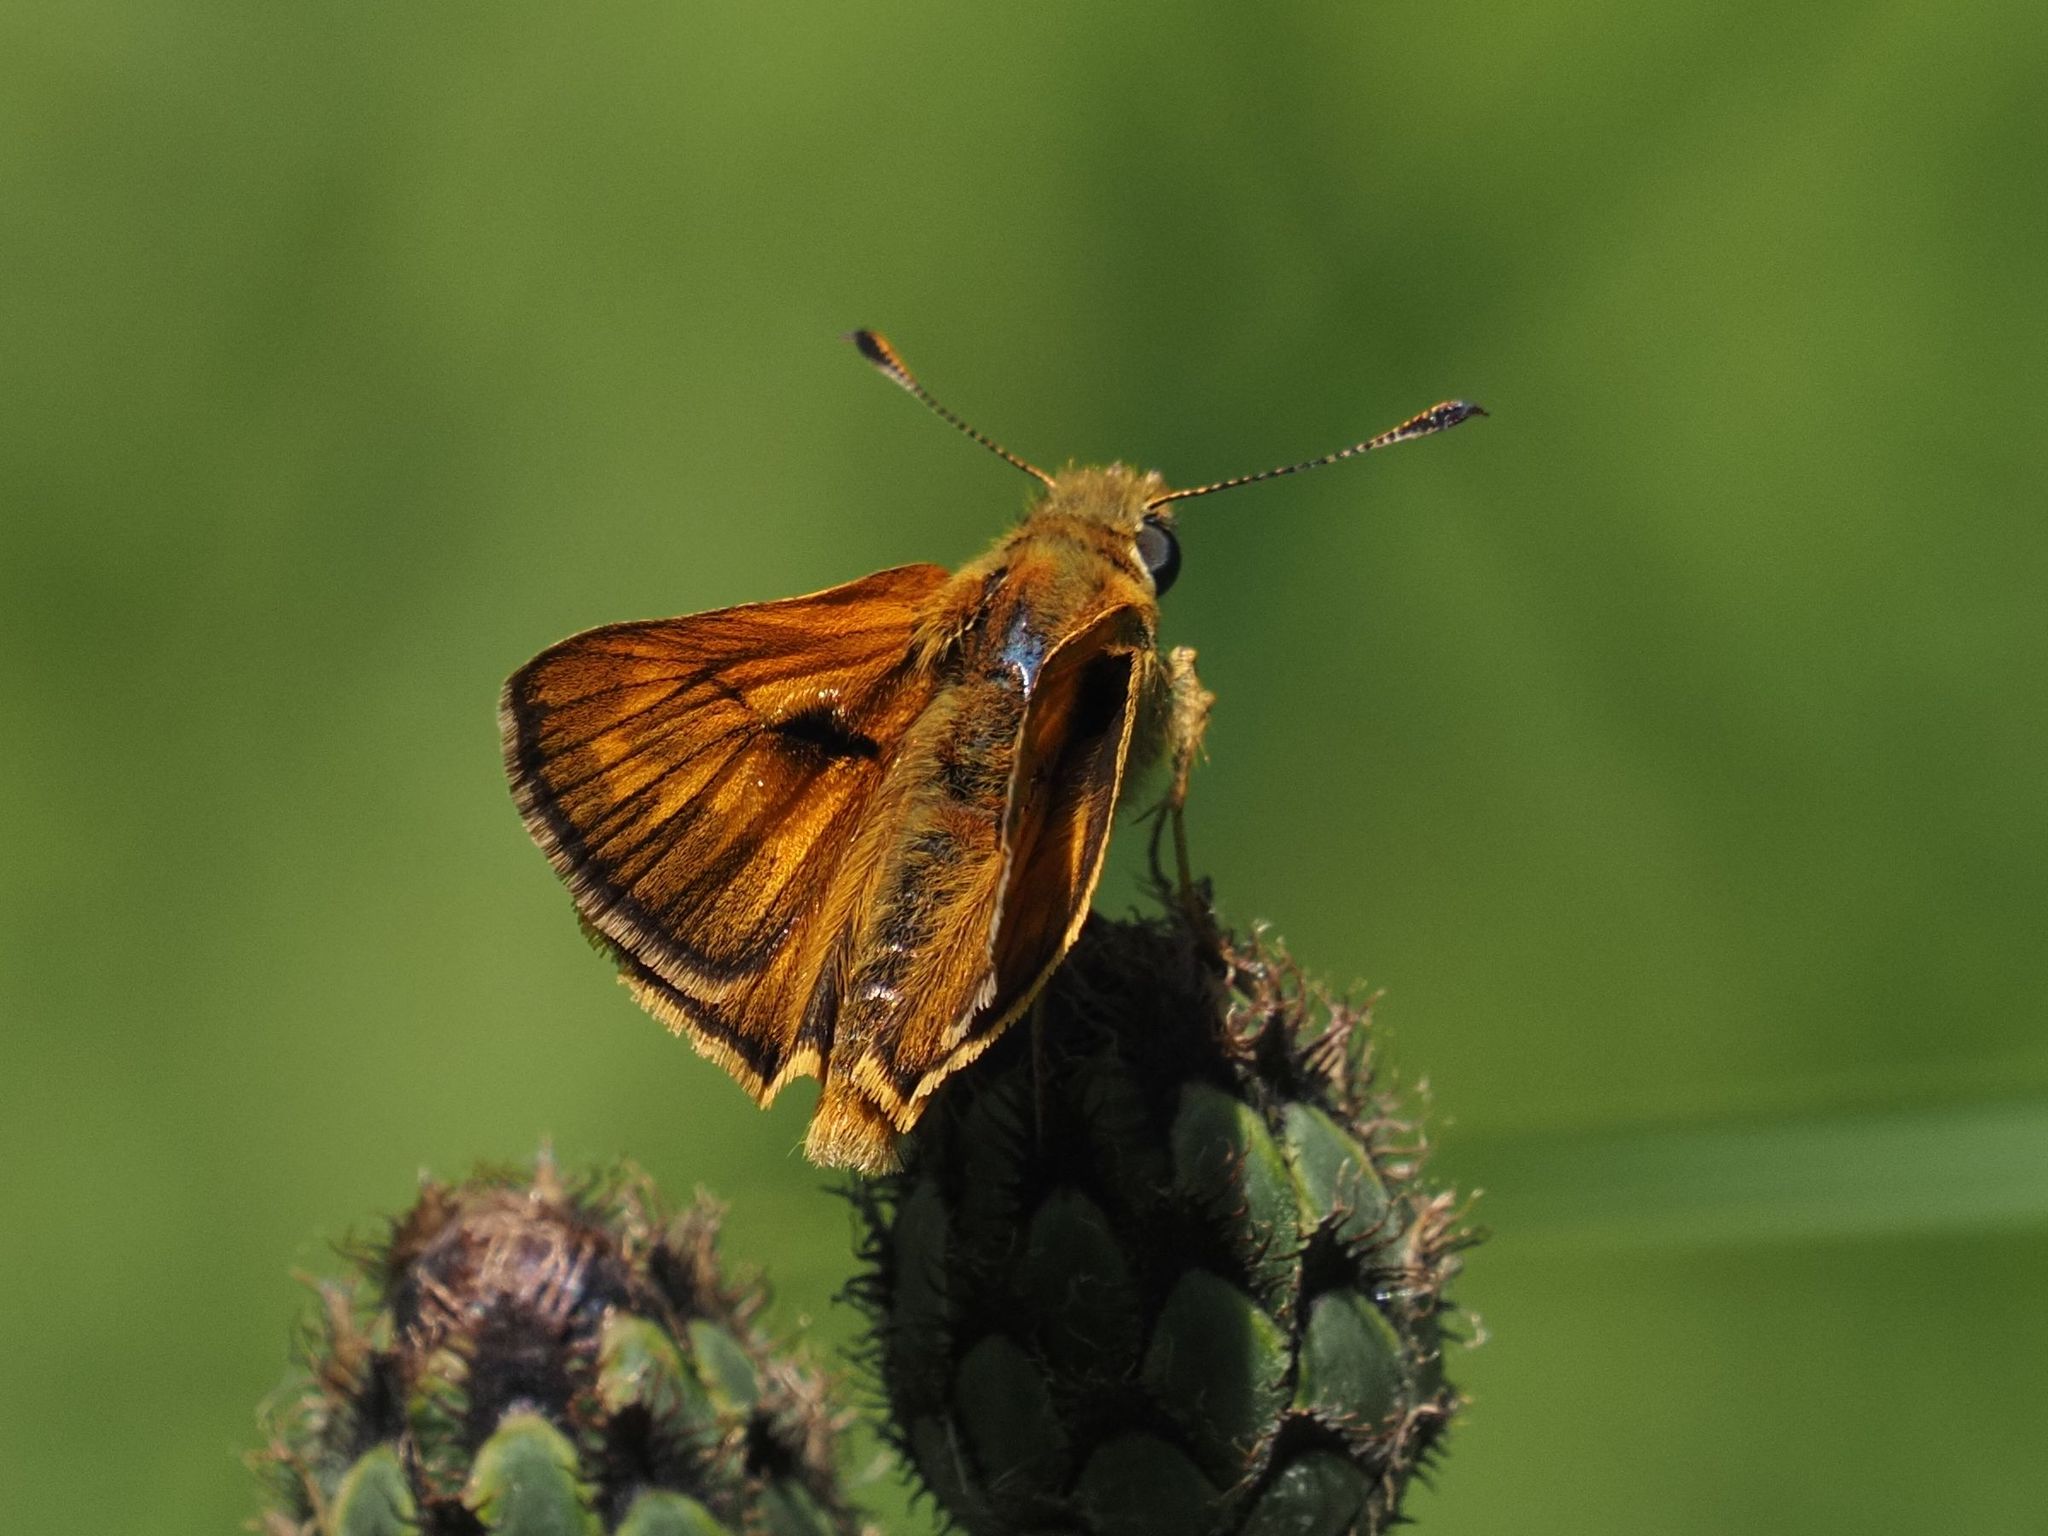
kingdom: Animalia
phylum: Arthropoda
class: Insecta
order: Lepidoptera
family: Hesperiidae
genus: Ochlodes
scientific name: Ochlodes venata
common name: Large skipper
